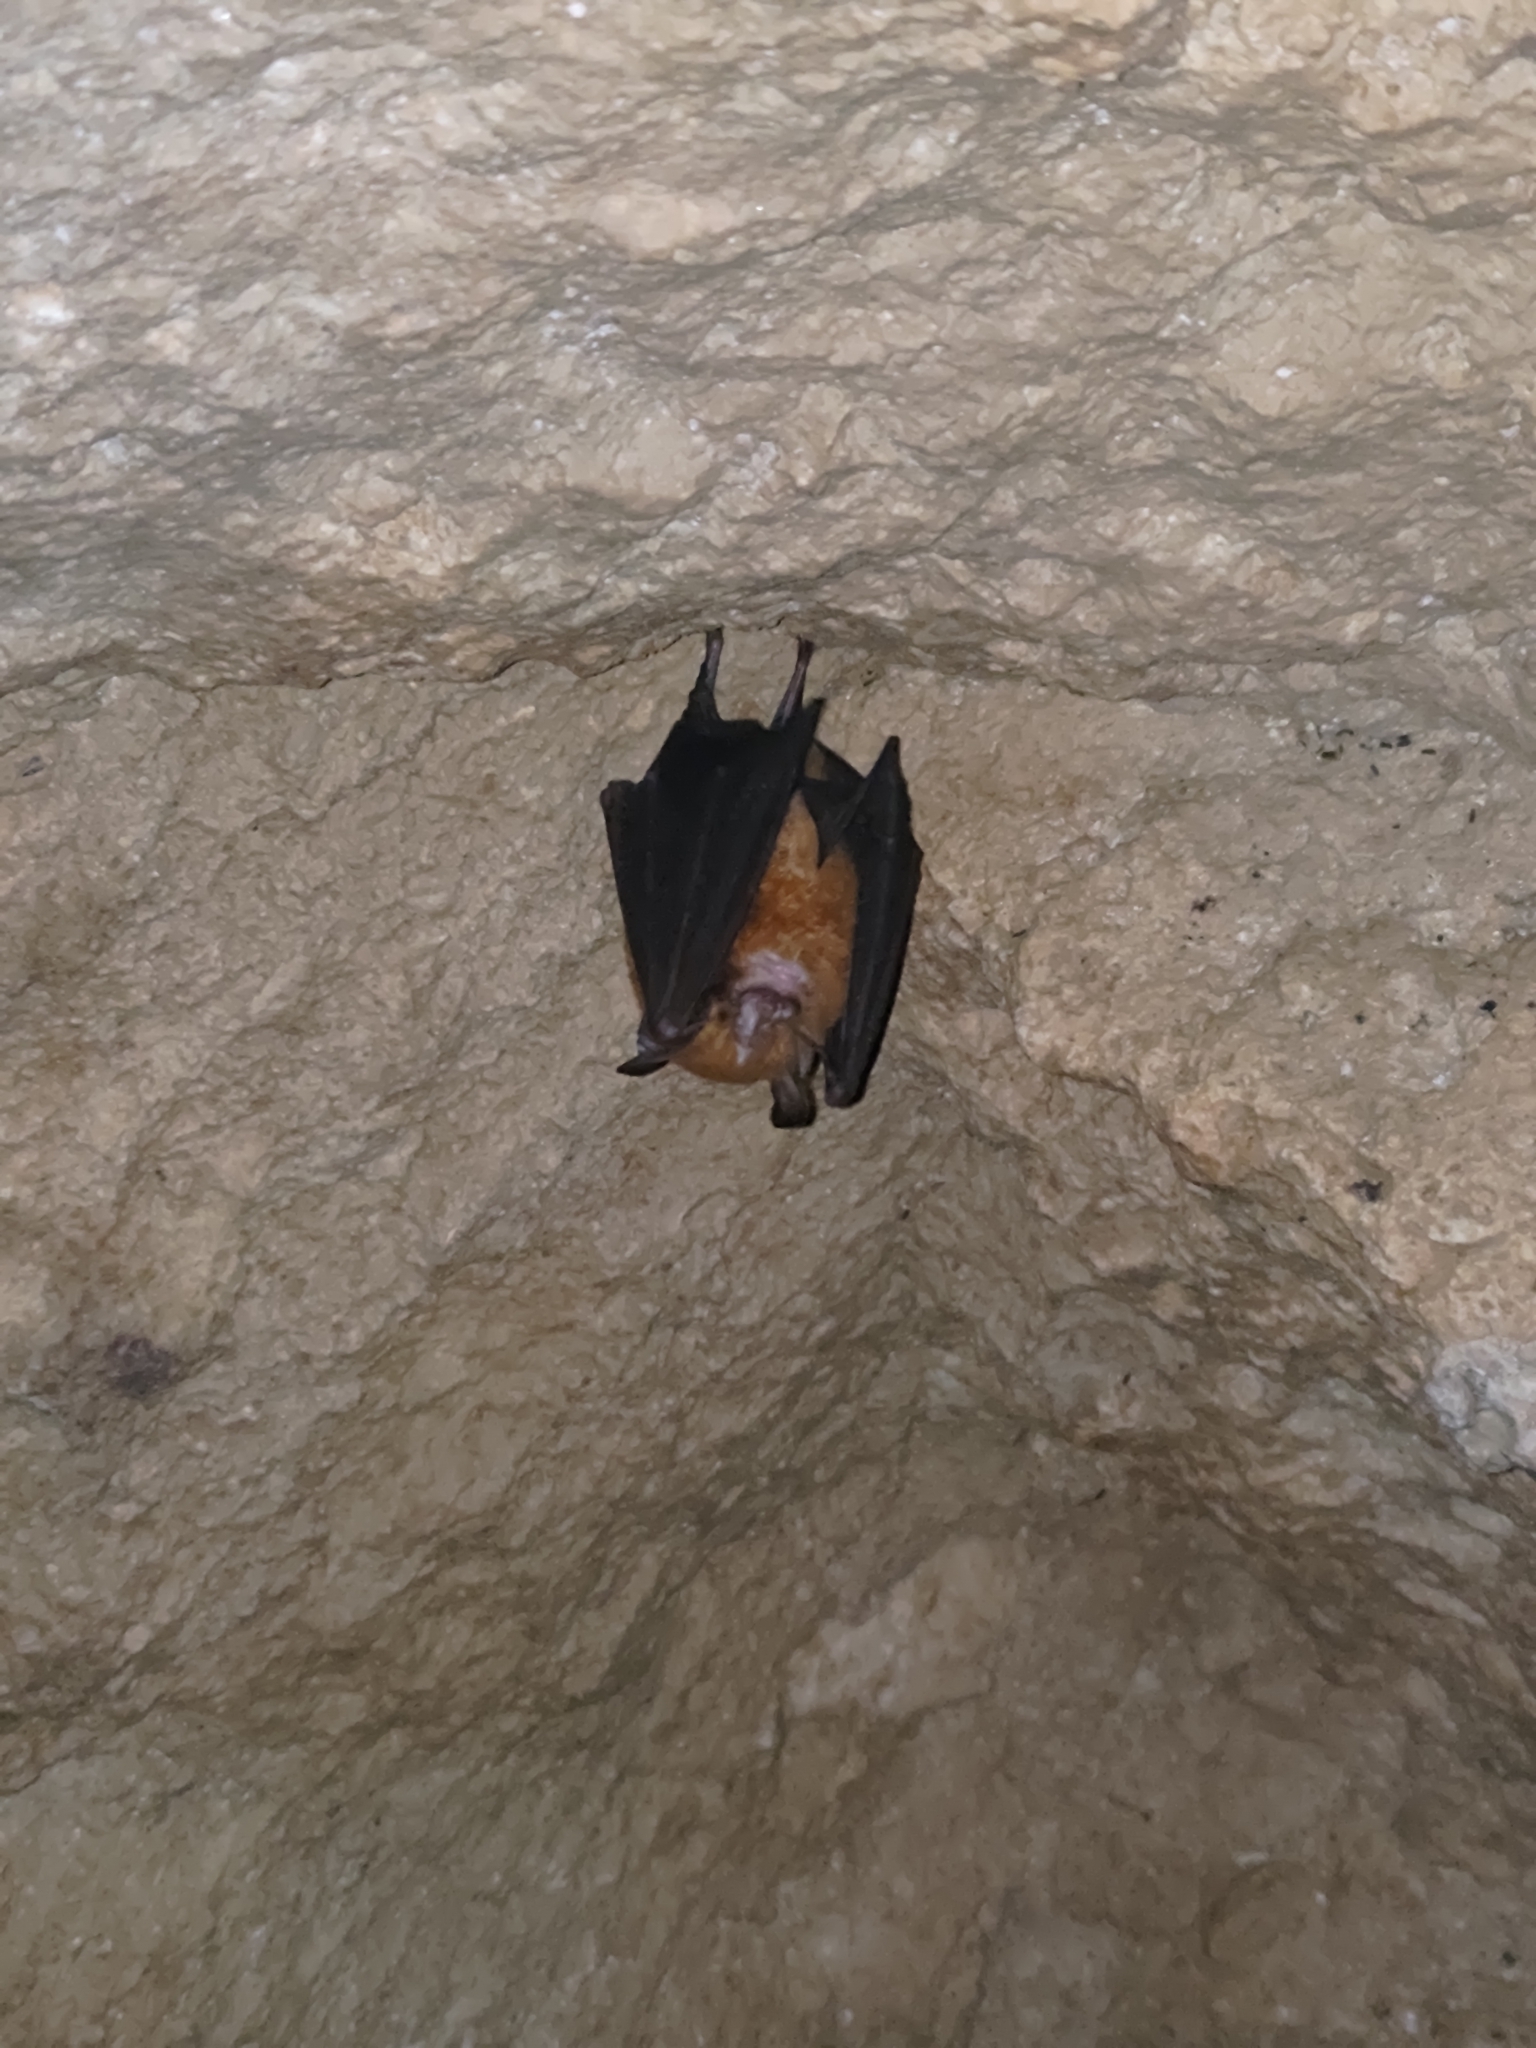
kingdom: Animalia
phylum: Chordata
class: Mammalia
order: Chiroptera
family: Rhinolophidae
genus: Rhinolophus
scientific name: Rhinolophus monoceros
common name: Formosan lesser horseshoe bat
